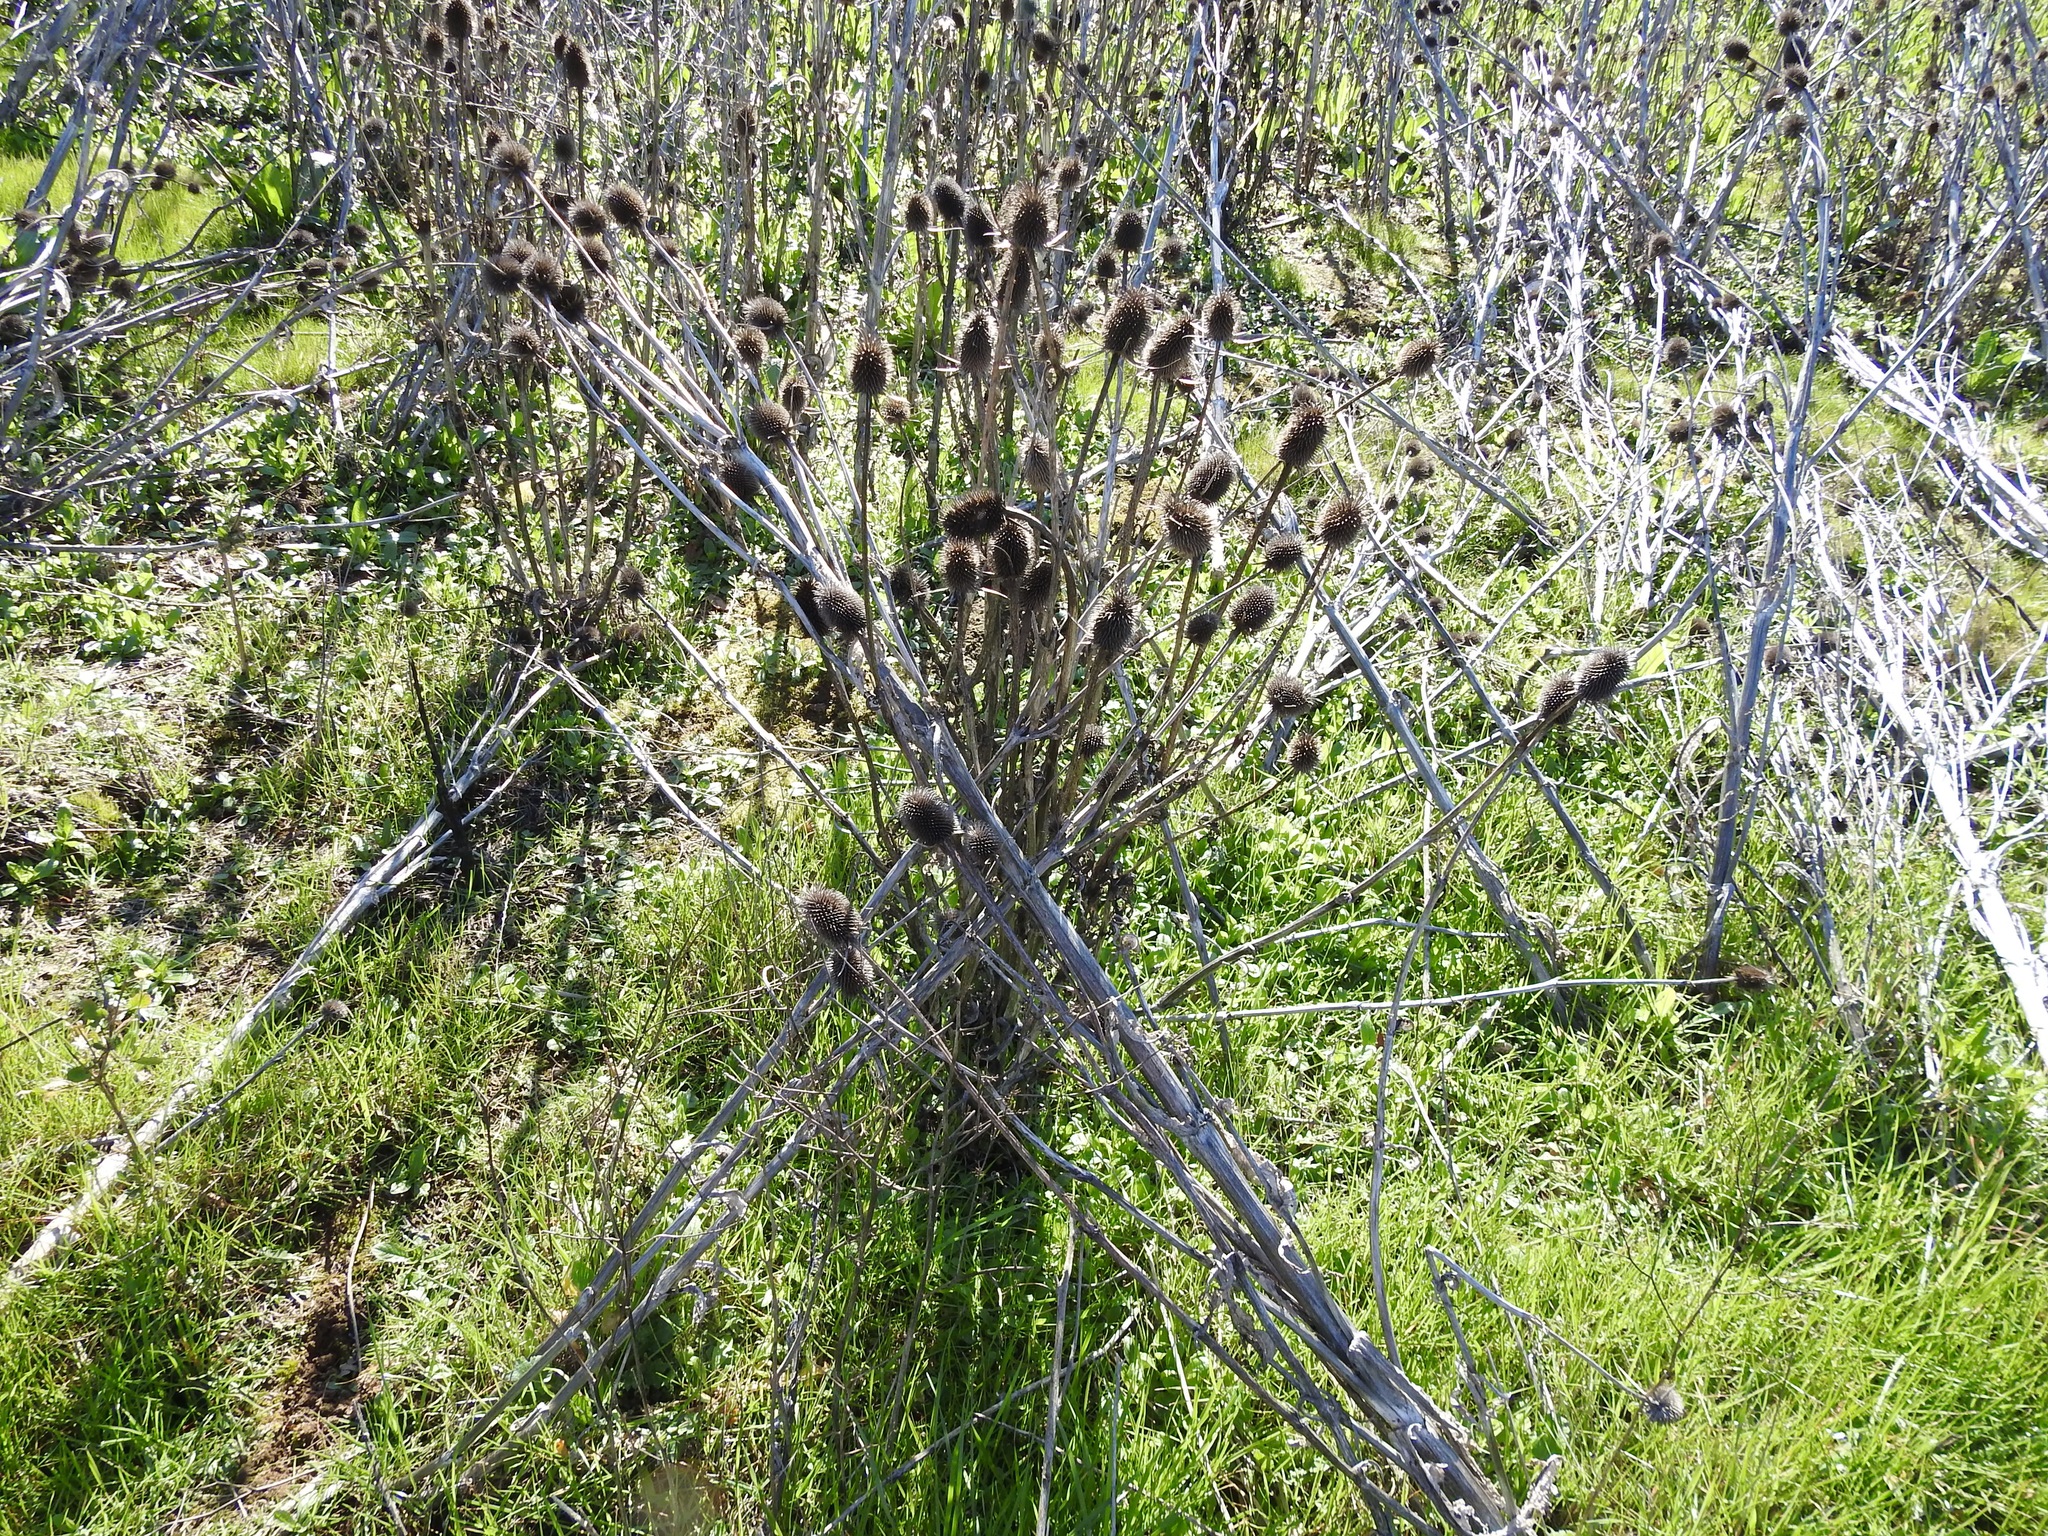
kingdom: Plantae
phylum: Tracheophyta
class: Magnoliopsida
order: Dipsacales
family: Caprifoliaceae
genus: Dipsacus
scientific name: Dipsacus sativus
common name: Fuller's teasel
